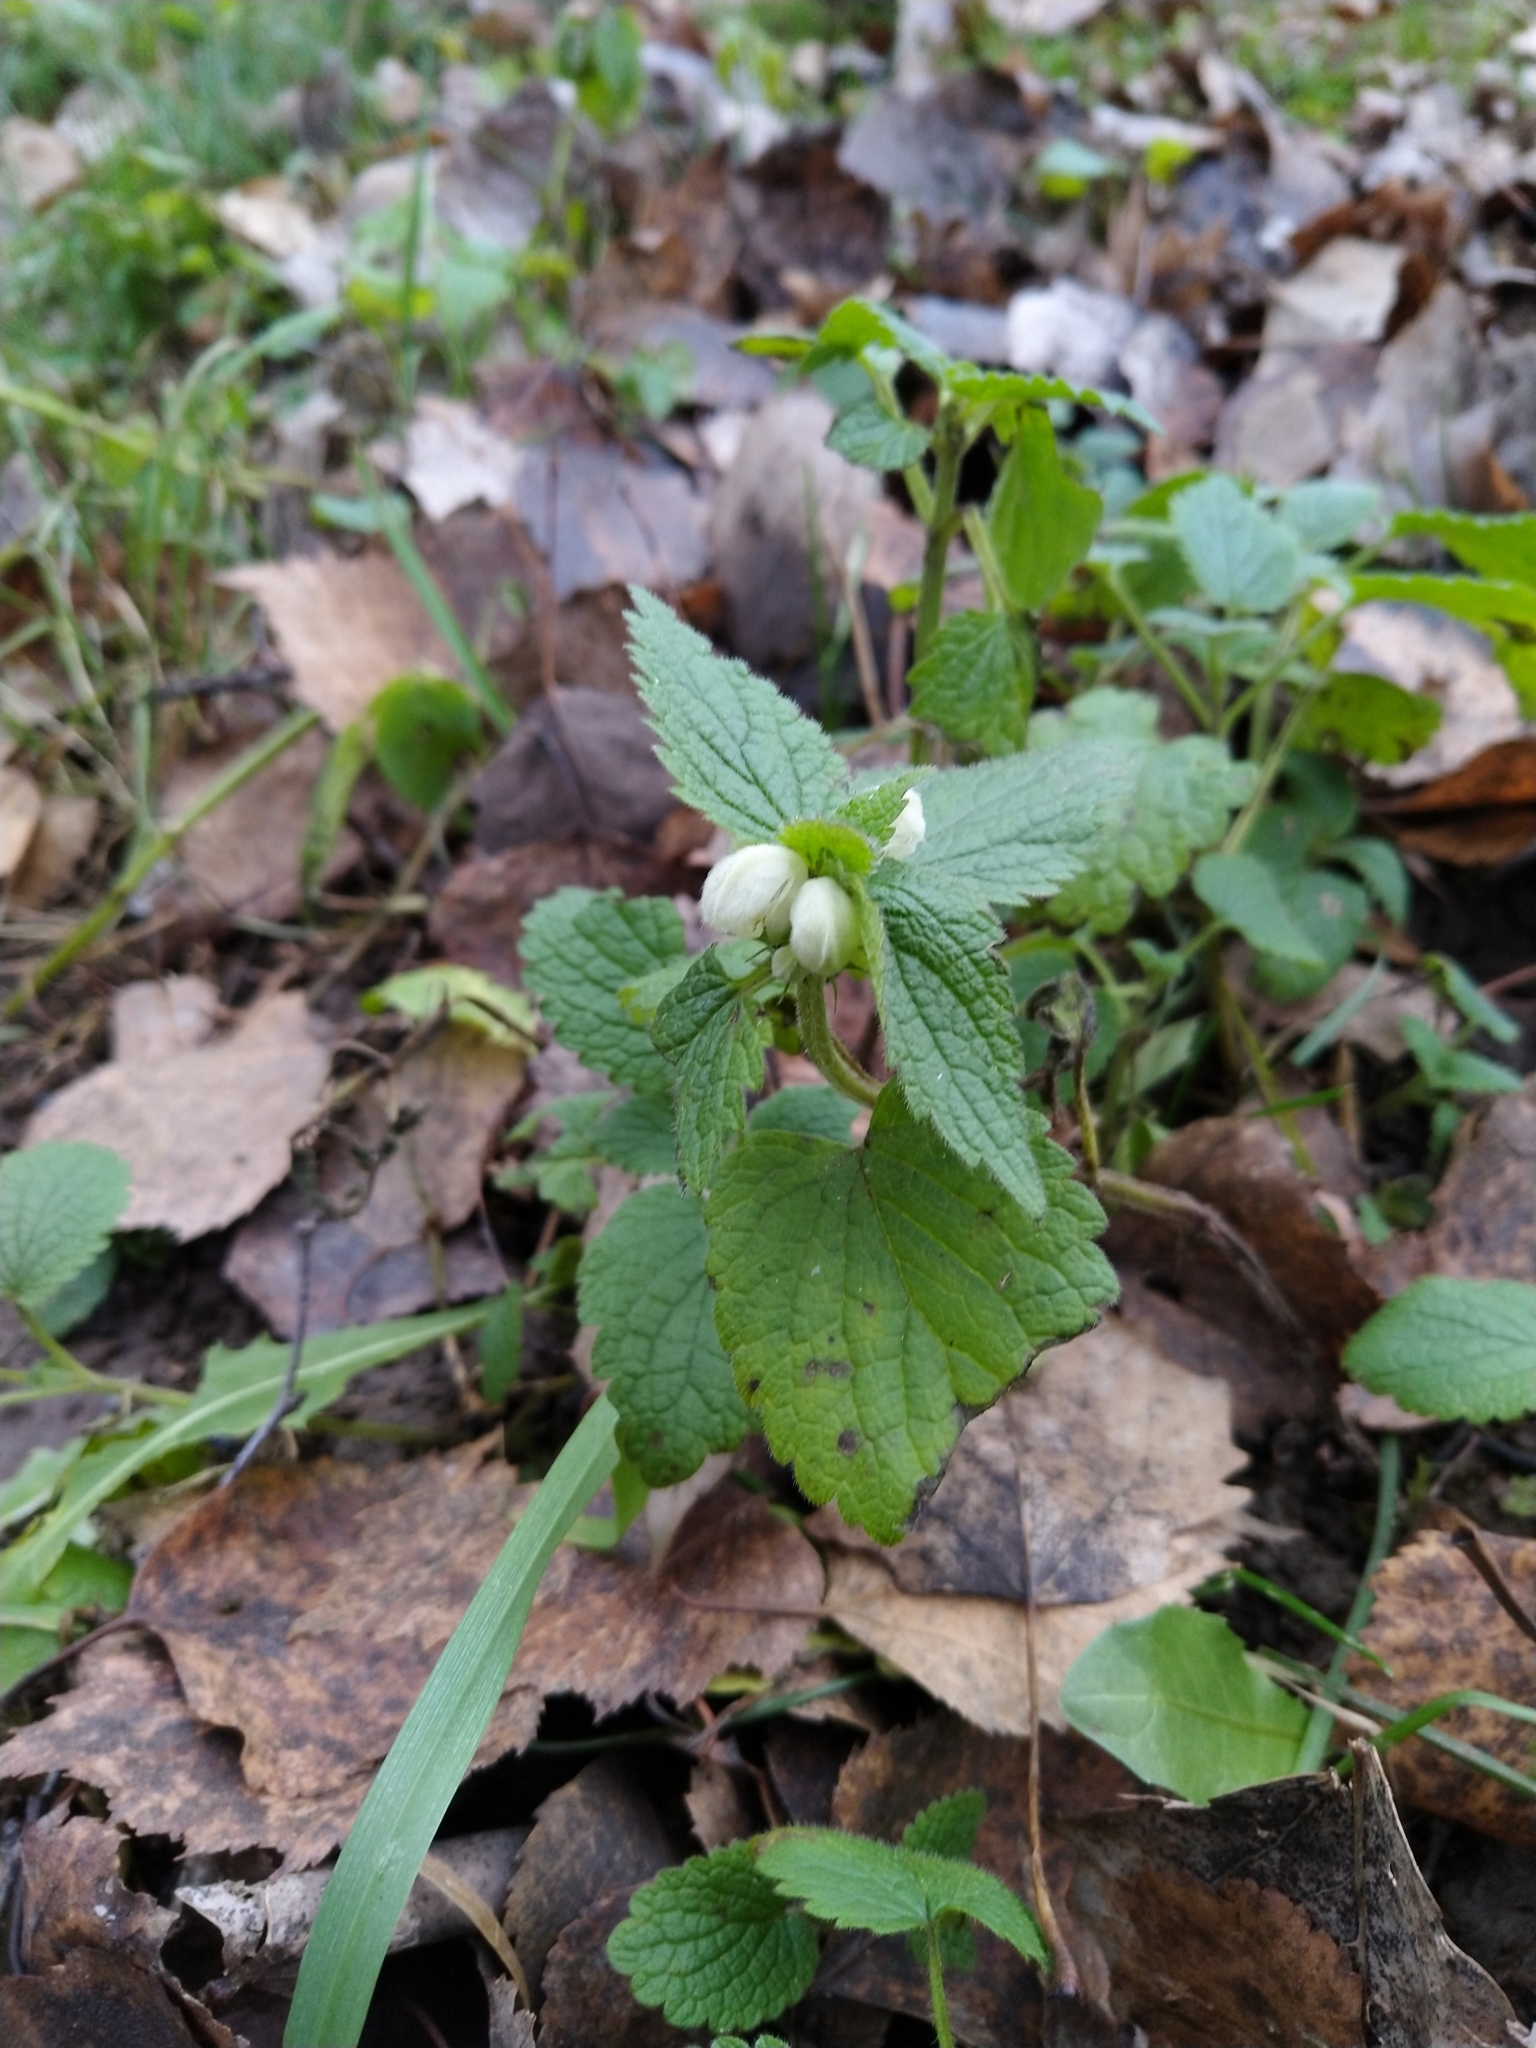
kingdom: Plantae
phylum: Tracheophyta
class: Magnoliopsida
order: Lamiales
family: Lamiaceae
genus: Lamium
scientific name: Lamium album
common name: White dead-nettle
